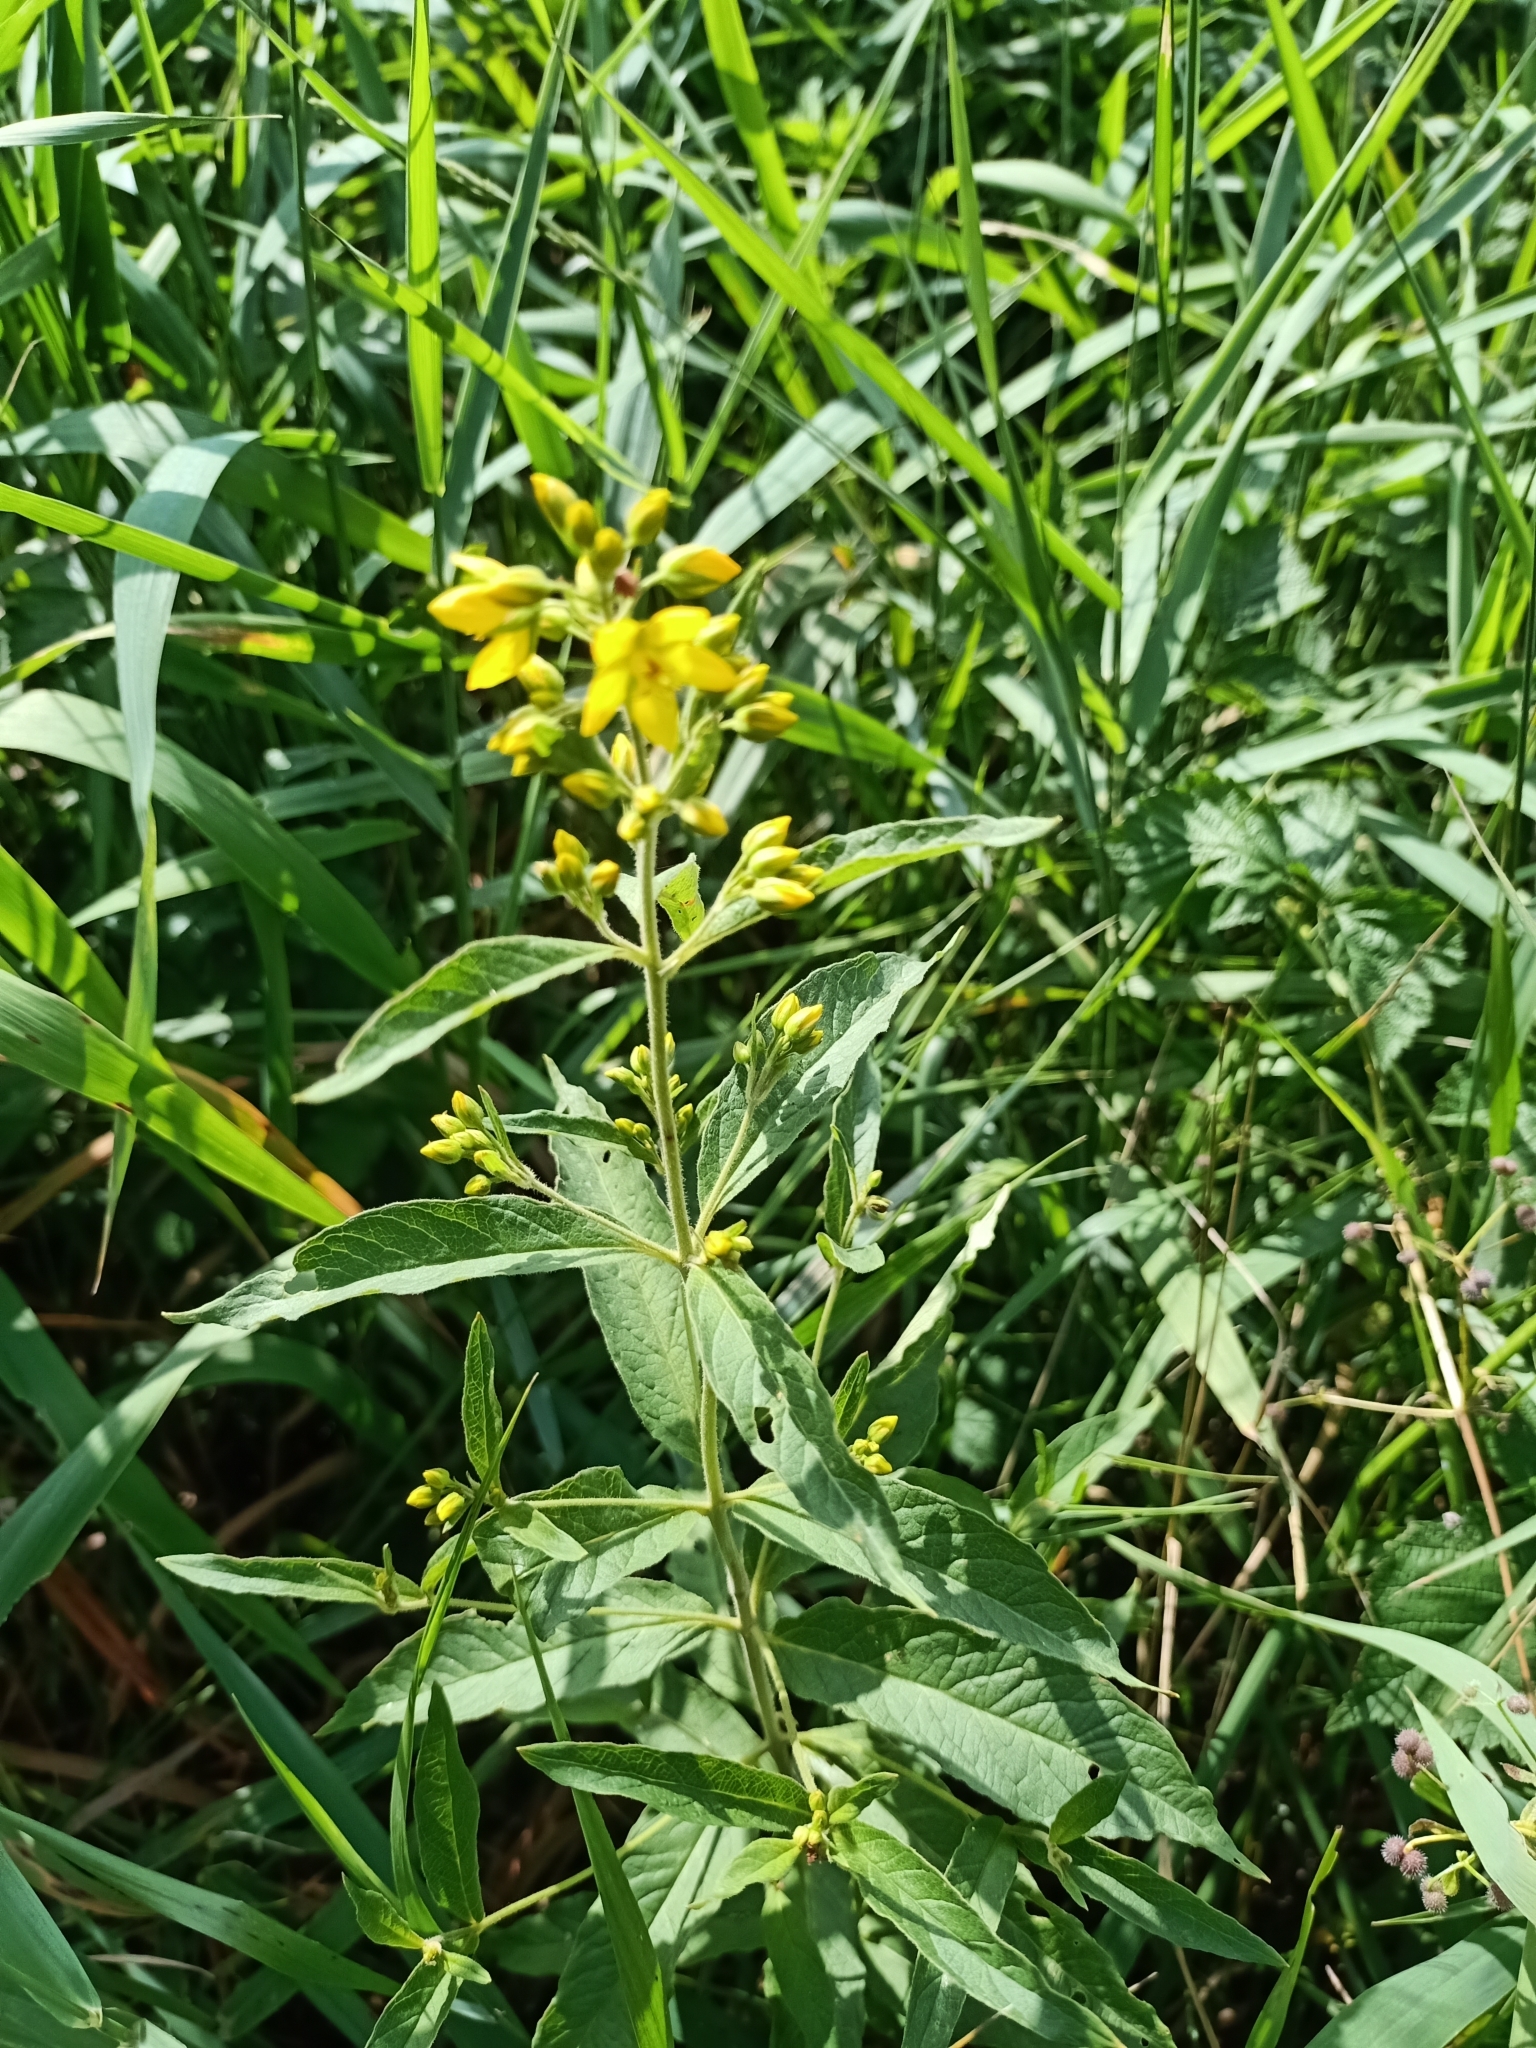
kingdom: Plantae
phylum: Tracheophyta
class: Magnoliopsida
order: Ericales
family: Primulaceae
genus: Lysimachia
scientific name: Lysimachia vulgaris
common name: Yellow loosestrife
